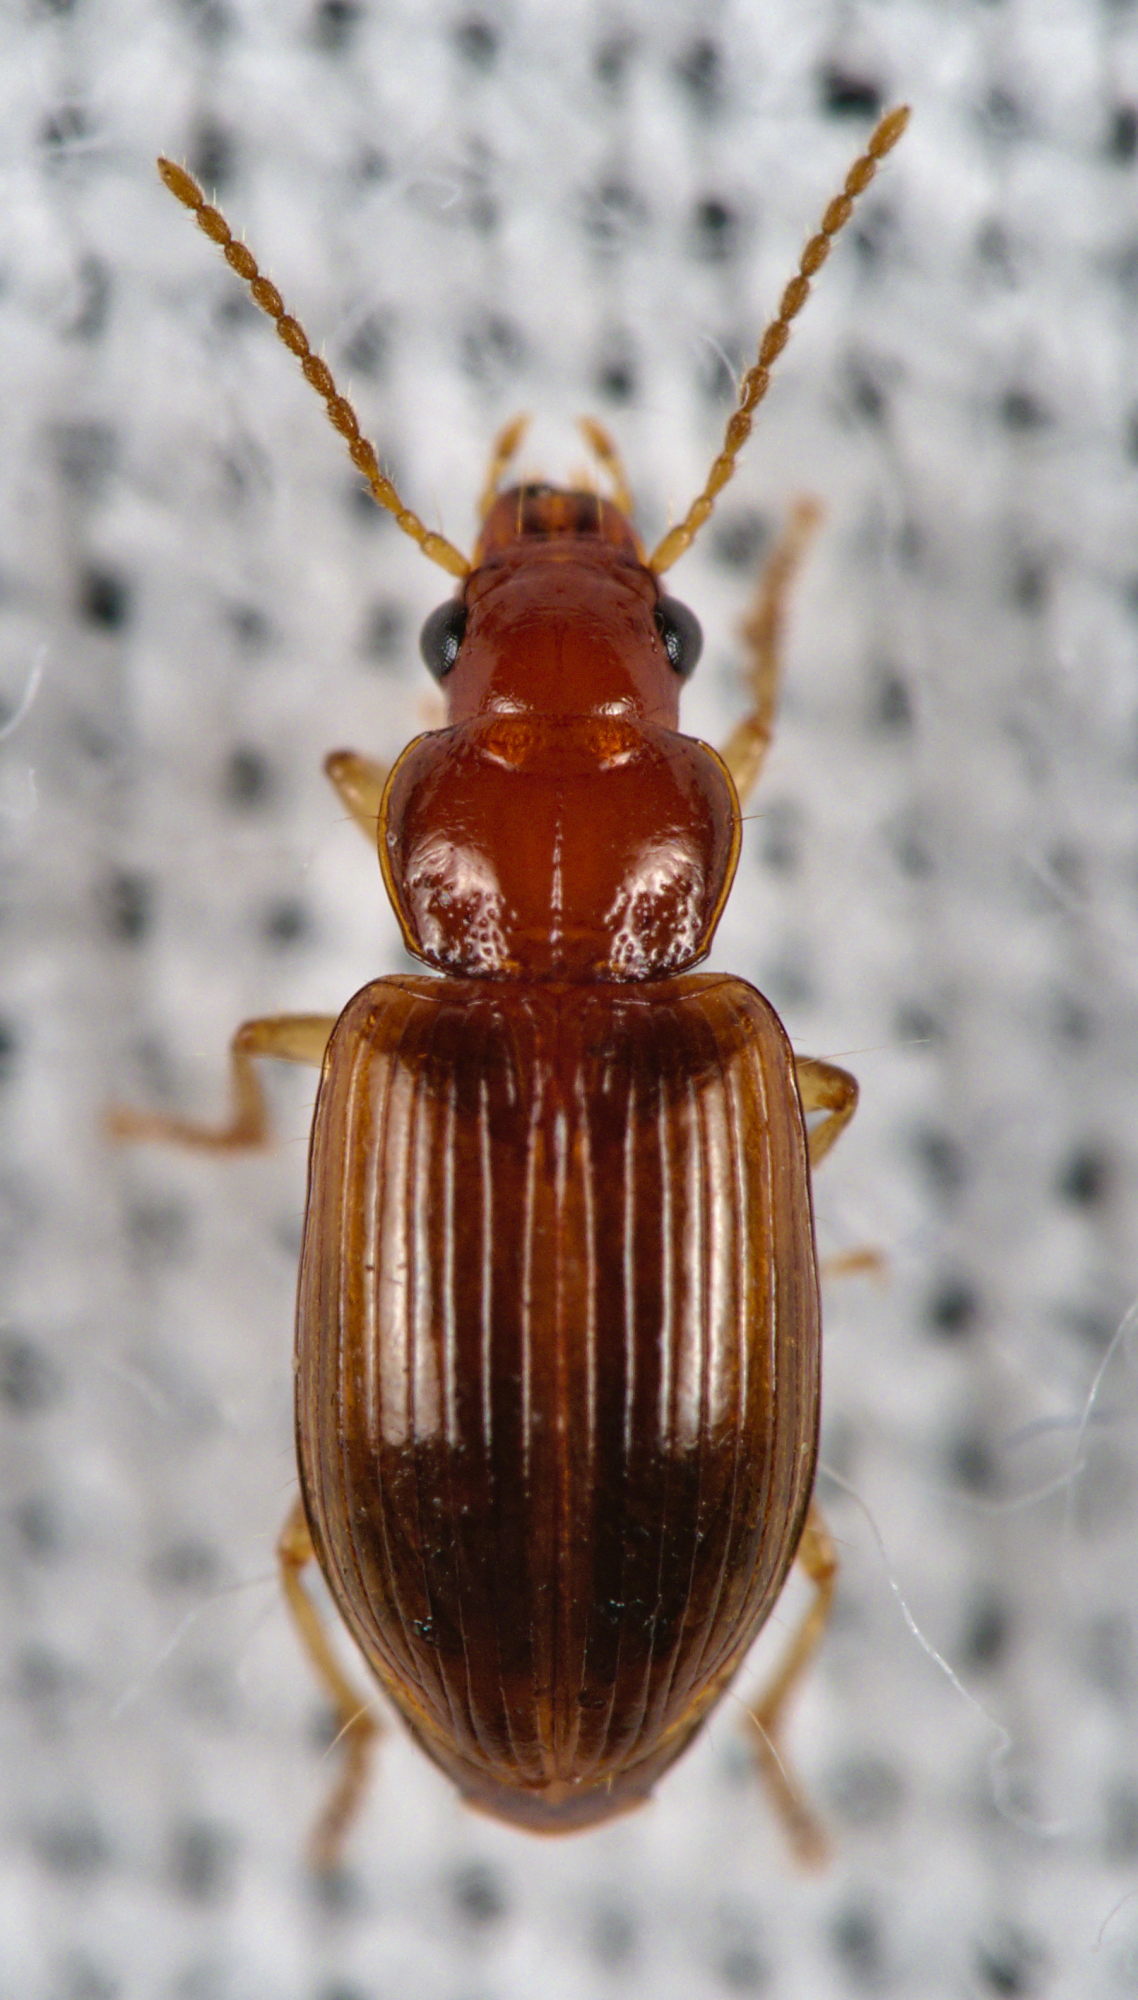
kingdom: Animalia
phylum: Arthropoda
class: Insecta
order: Coleoptera
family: Carabidae
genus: Bradycellus
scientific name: Bradycellus verbasci
